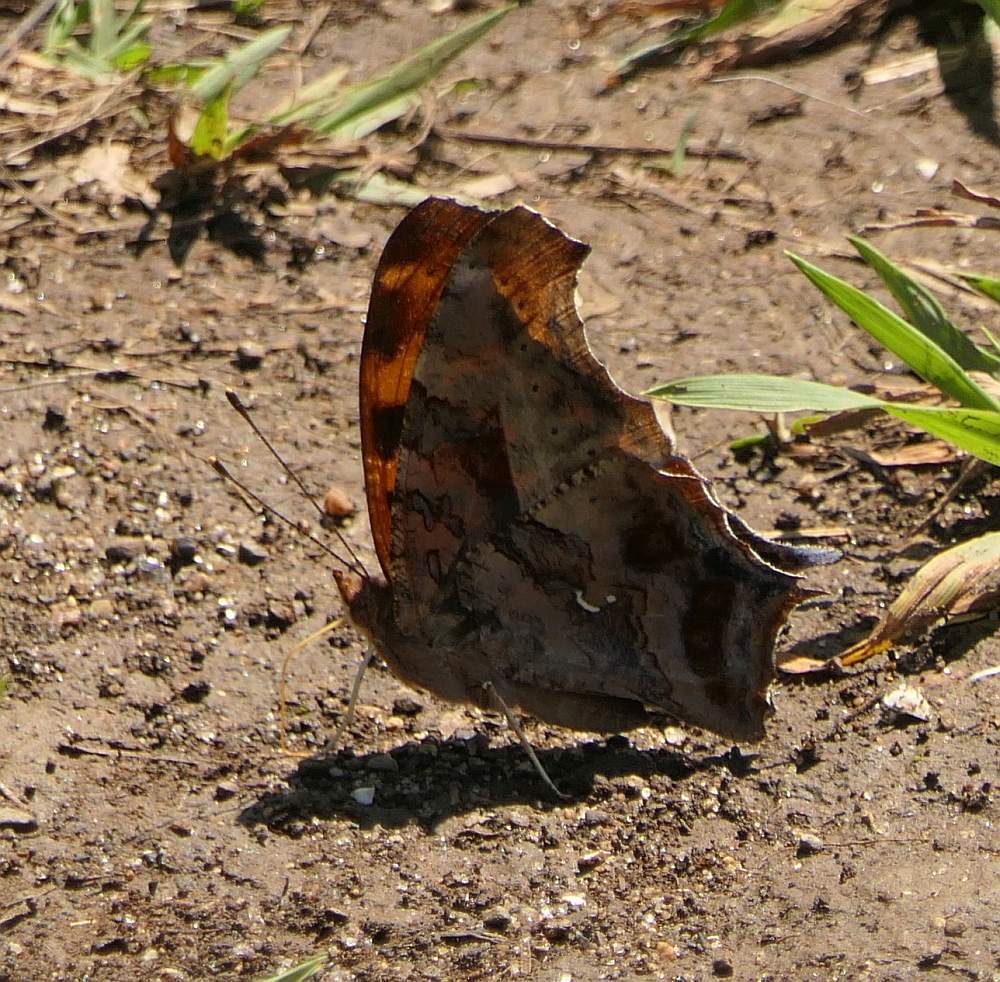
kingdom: Animalia
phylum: Arthropoda
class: Insecta
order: Lepidoptera
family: Nymphalidae
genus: Polygonia
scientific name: Polygonia interrogationis
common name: Question mark
